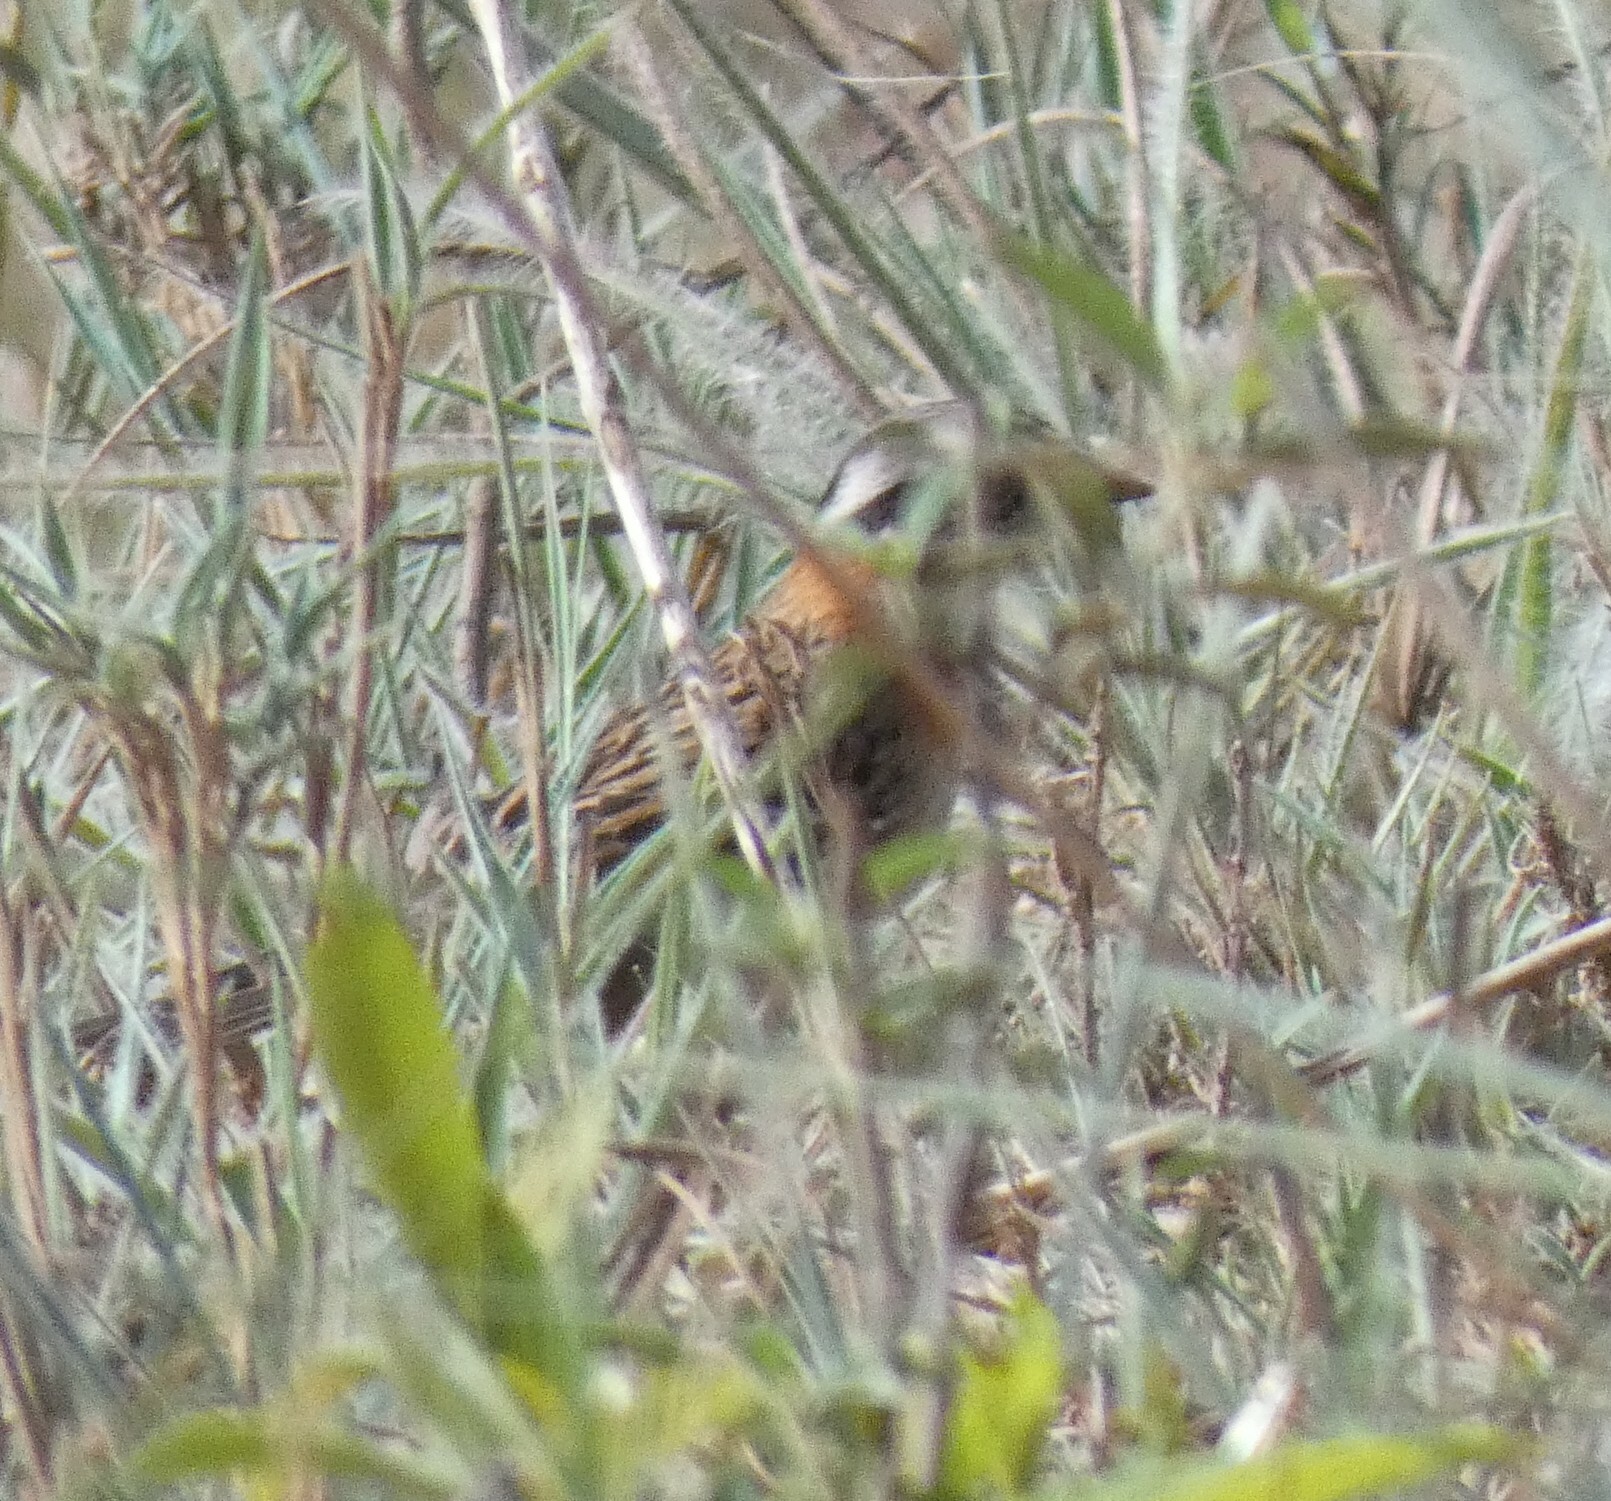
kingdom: Animalia
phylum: Chordata
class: Aves
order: Passeriformes
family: Passerellidae
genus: Zonotrichia
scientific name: Zonotrichia capensis
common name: Rufous-collared sparrow
